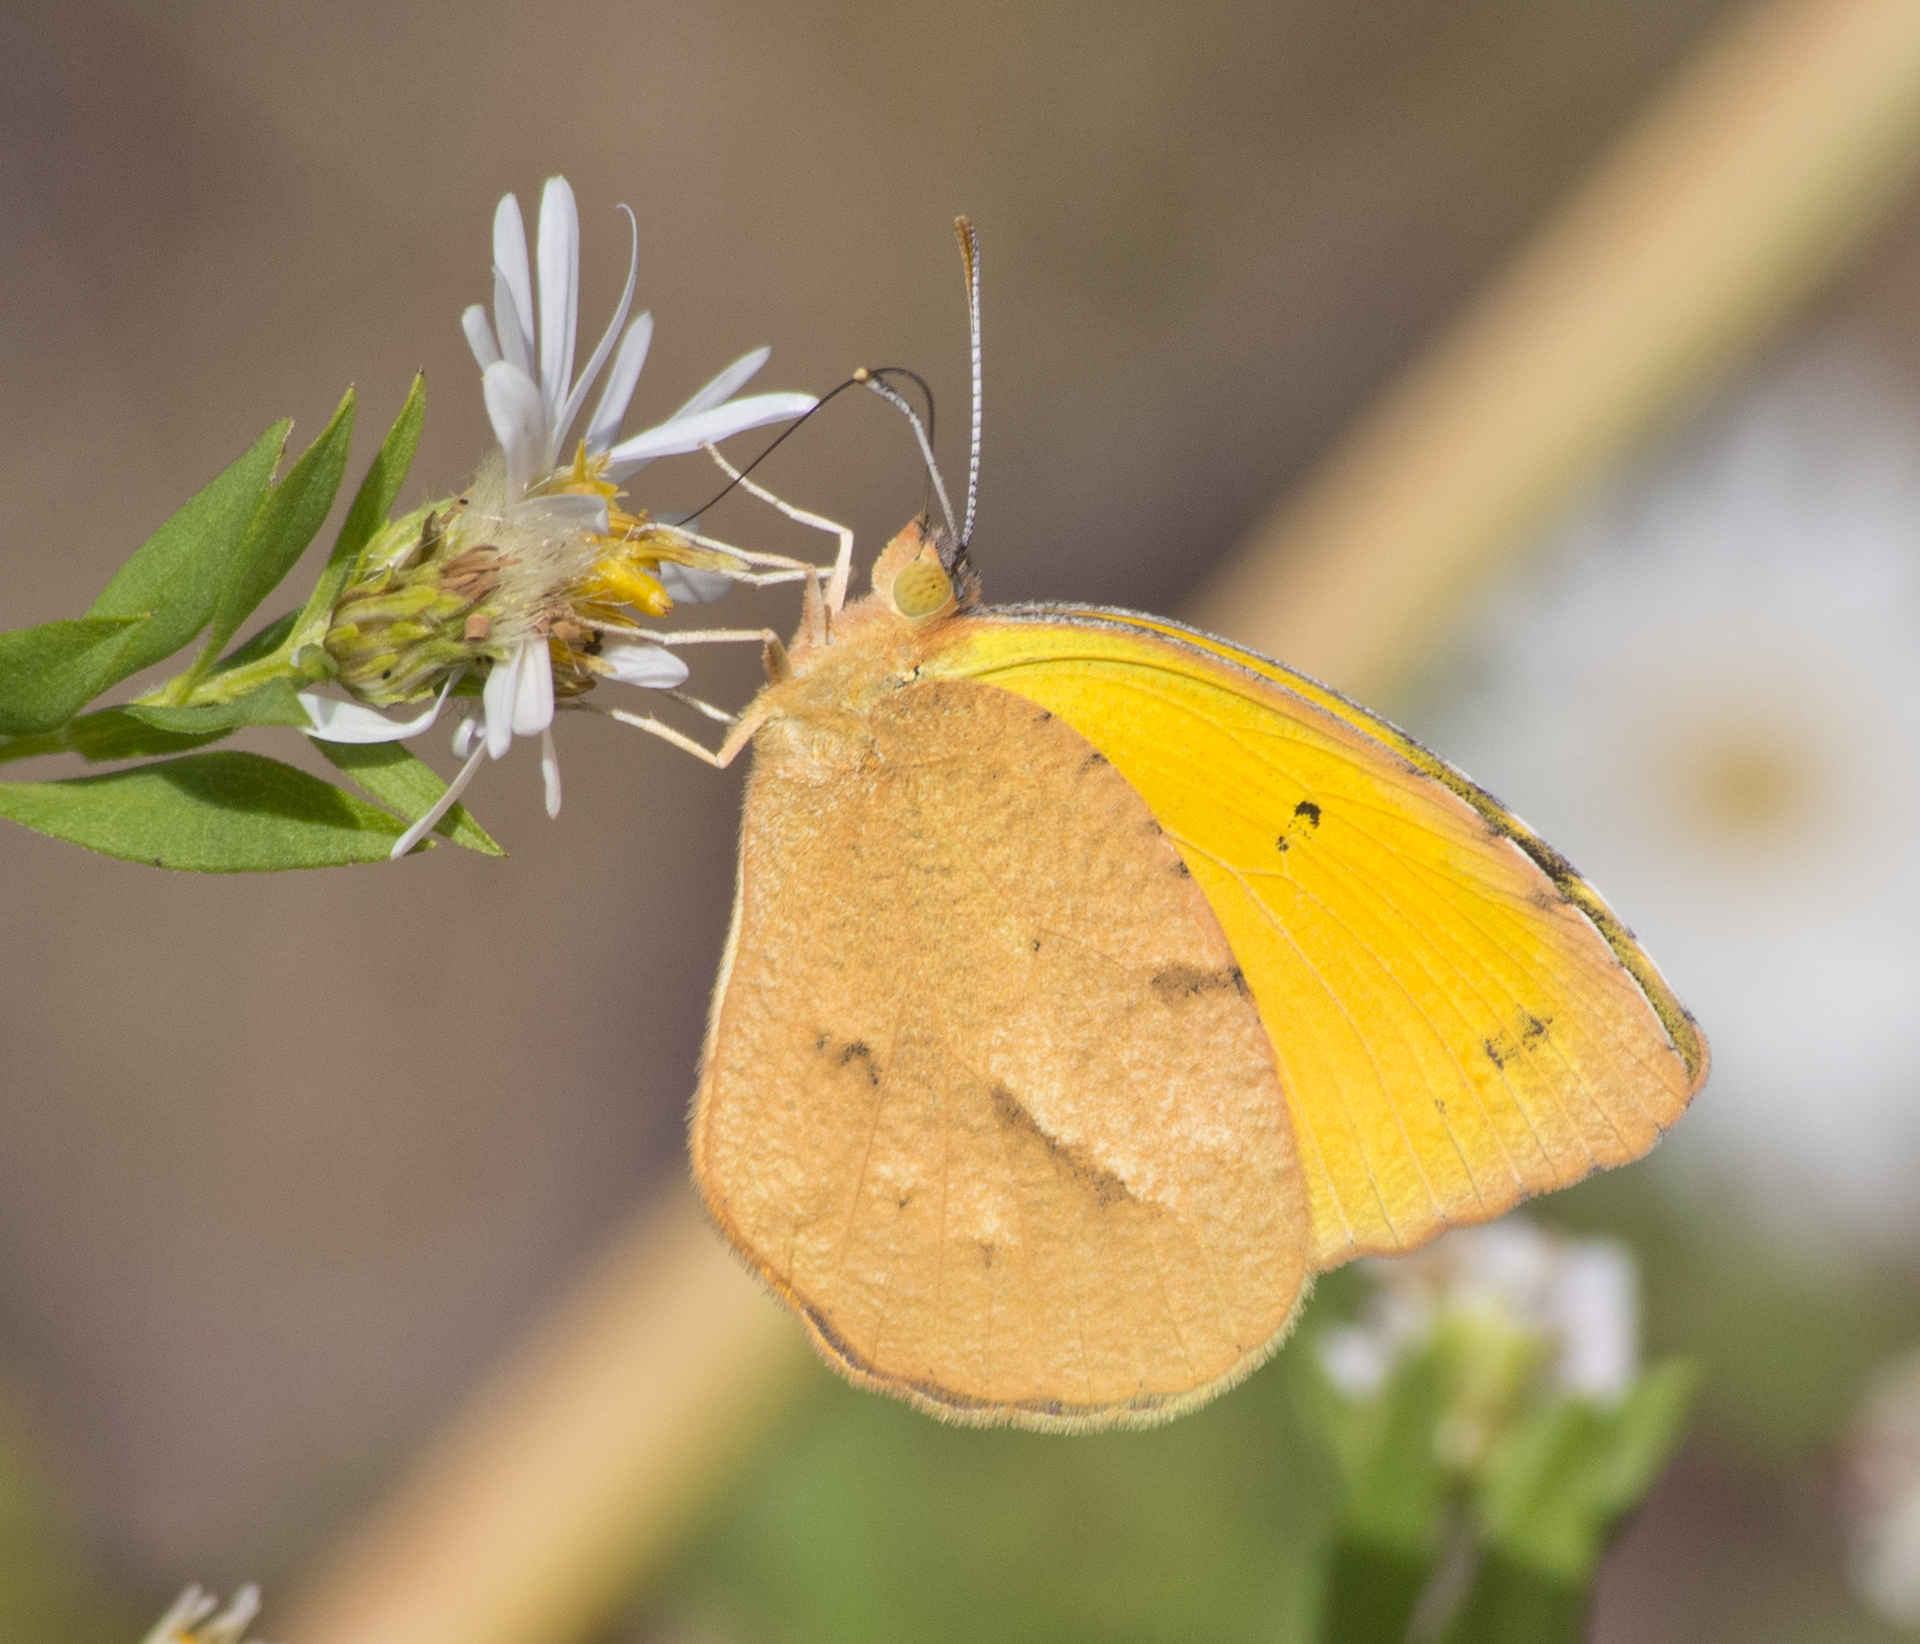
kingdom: Animalia
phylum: Arthropoda
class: Insecta
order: Lepidoptera
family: Pieridae
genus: Abaeis
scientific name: Abaeis nicippe
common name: Sleepy orange
